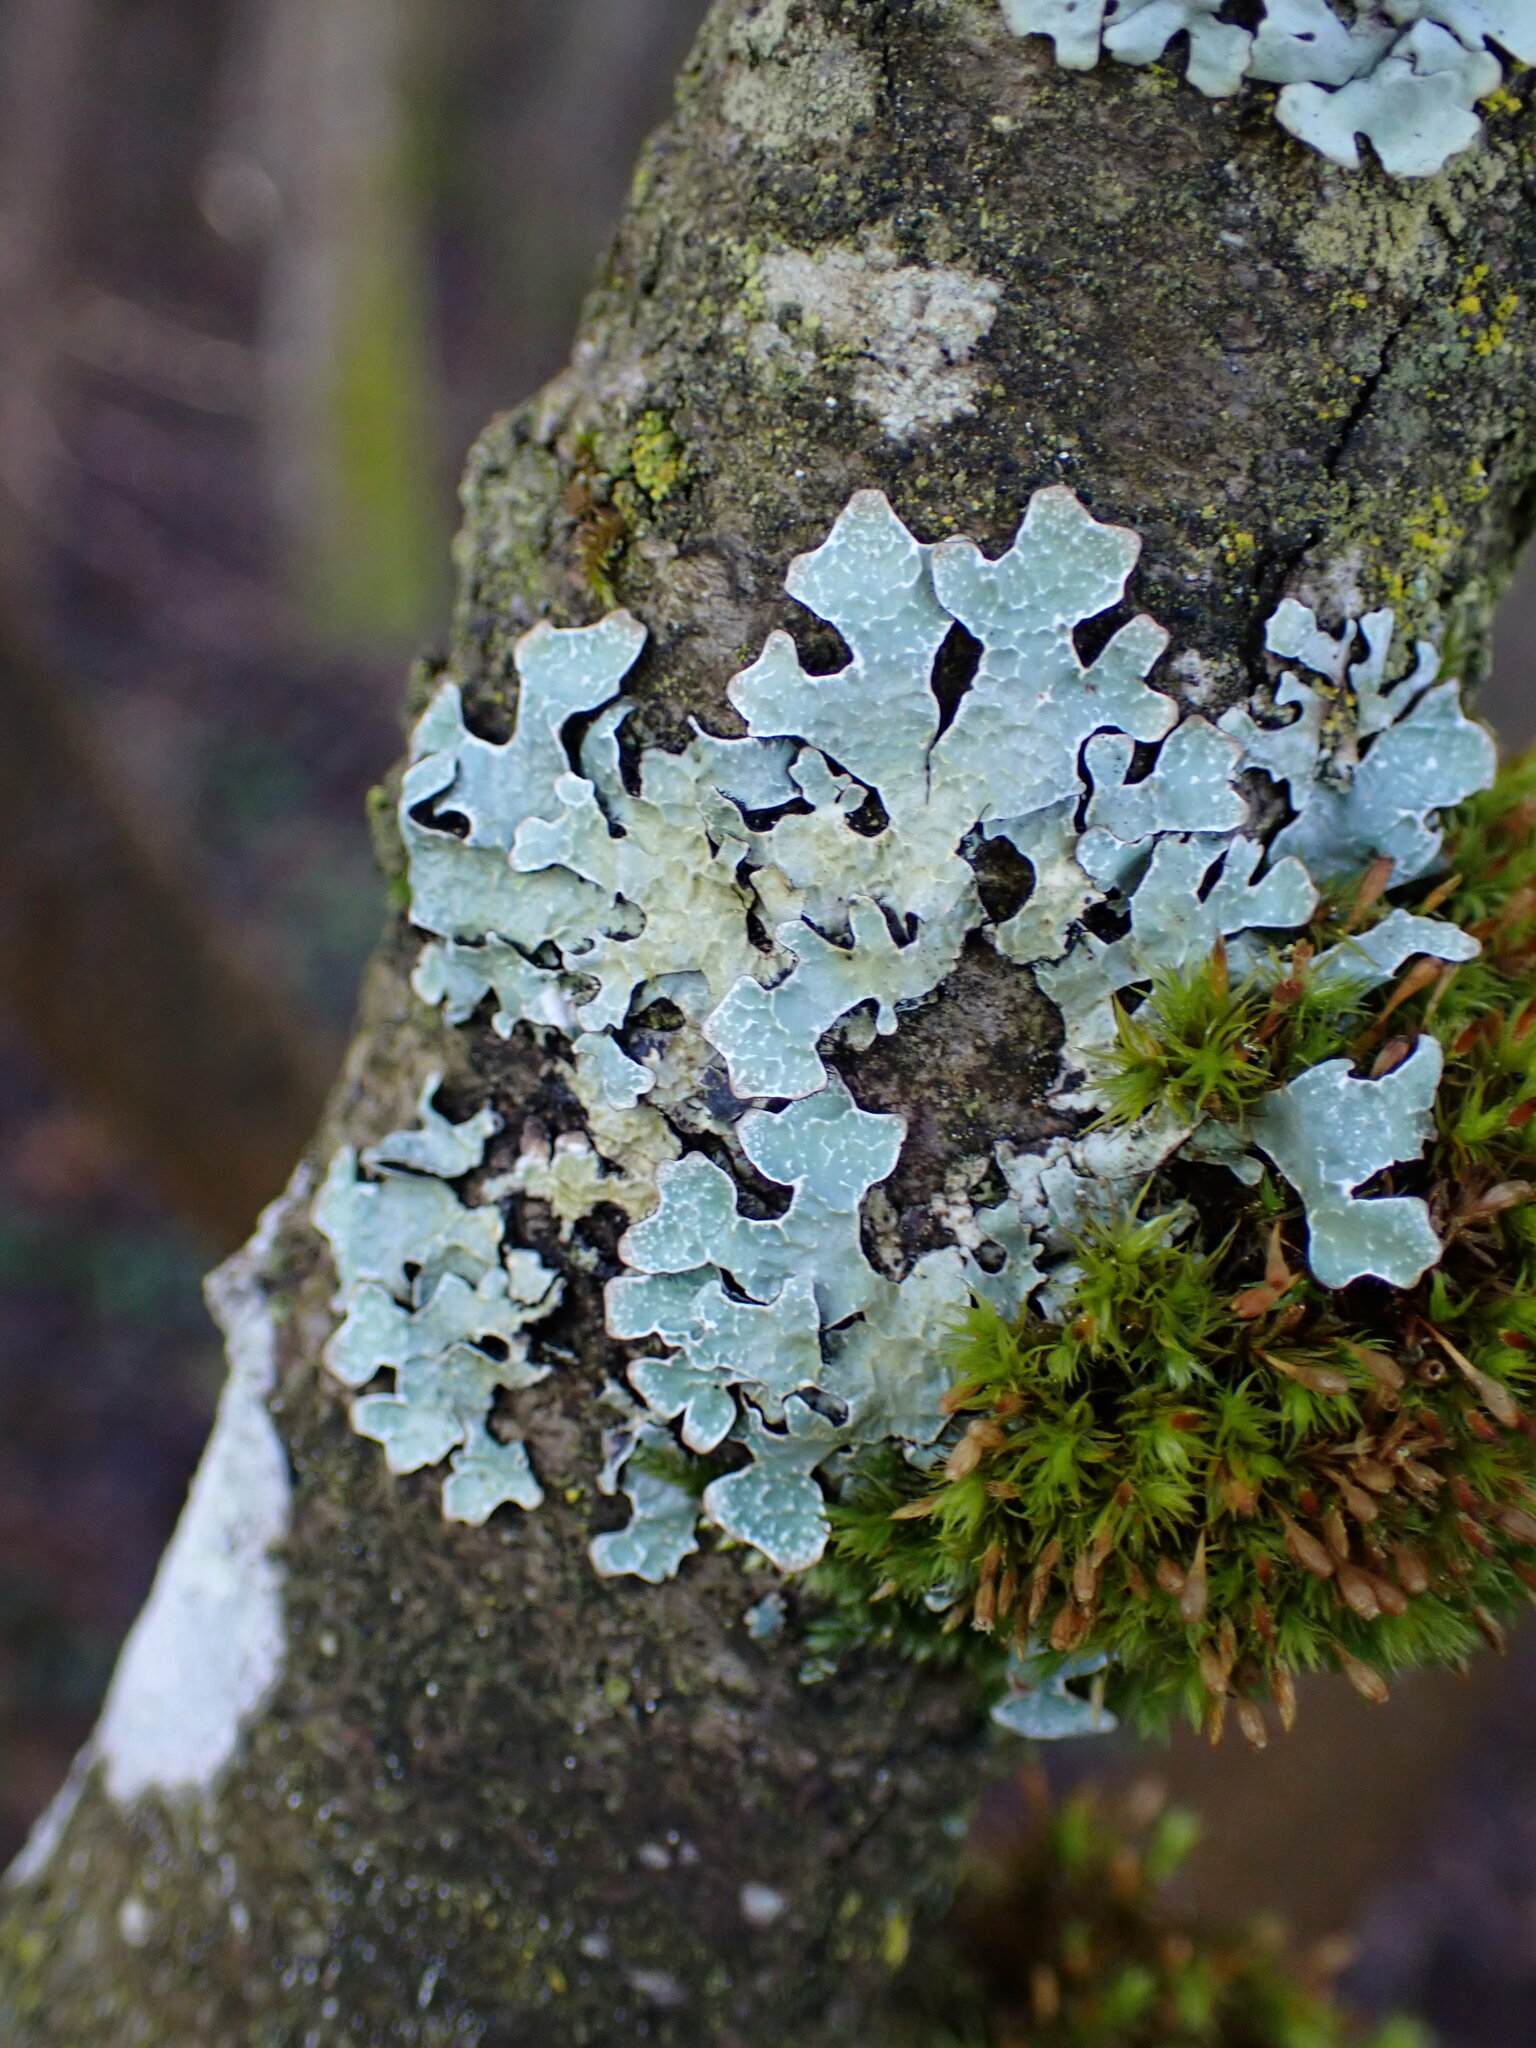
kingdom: Fungi
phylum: Ascomycota
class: Lecanoromycetes
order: Lecanorales
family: Parmeliaceae
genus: Parmelia
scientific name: Parmelia sulcata
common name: Netted shield lichen
